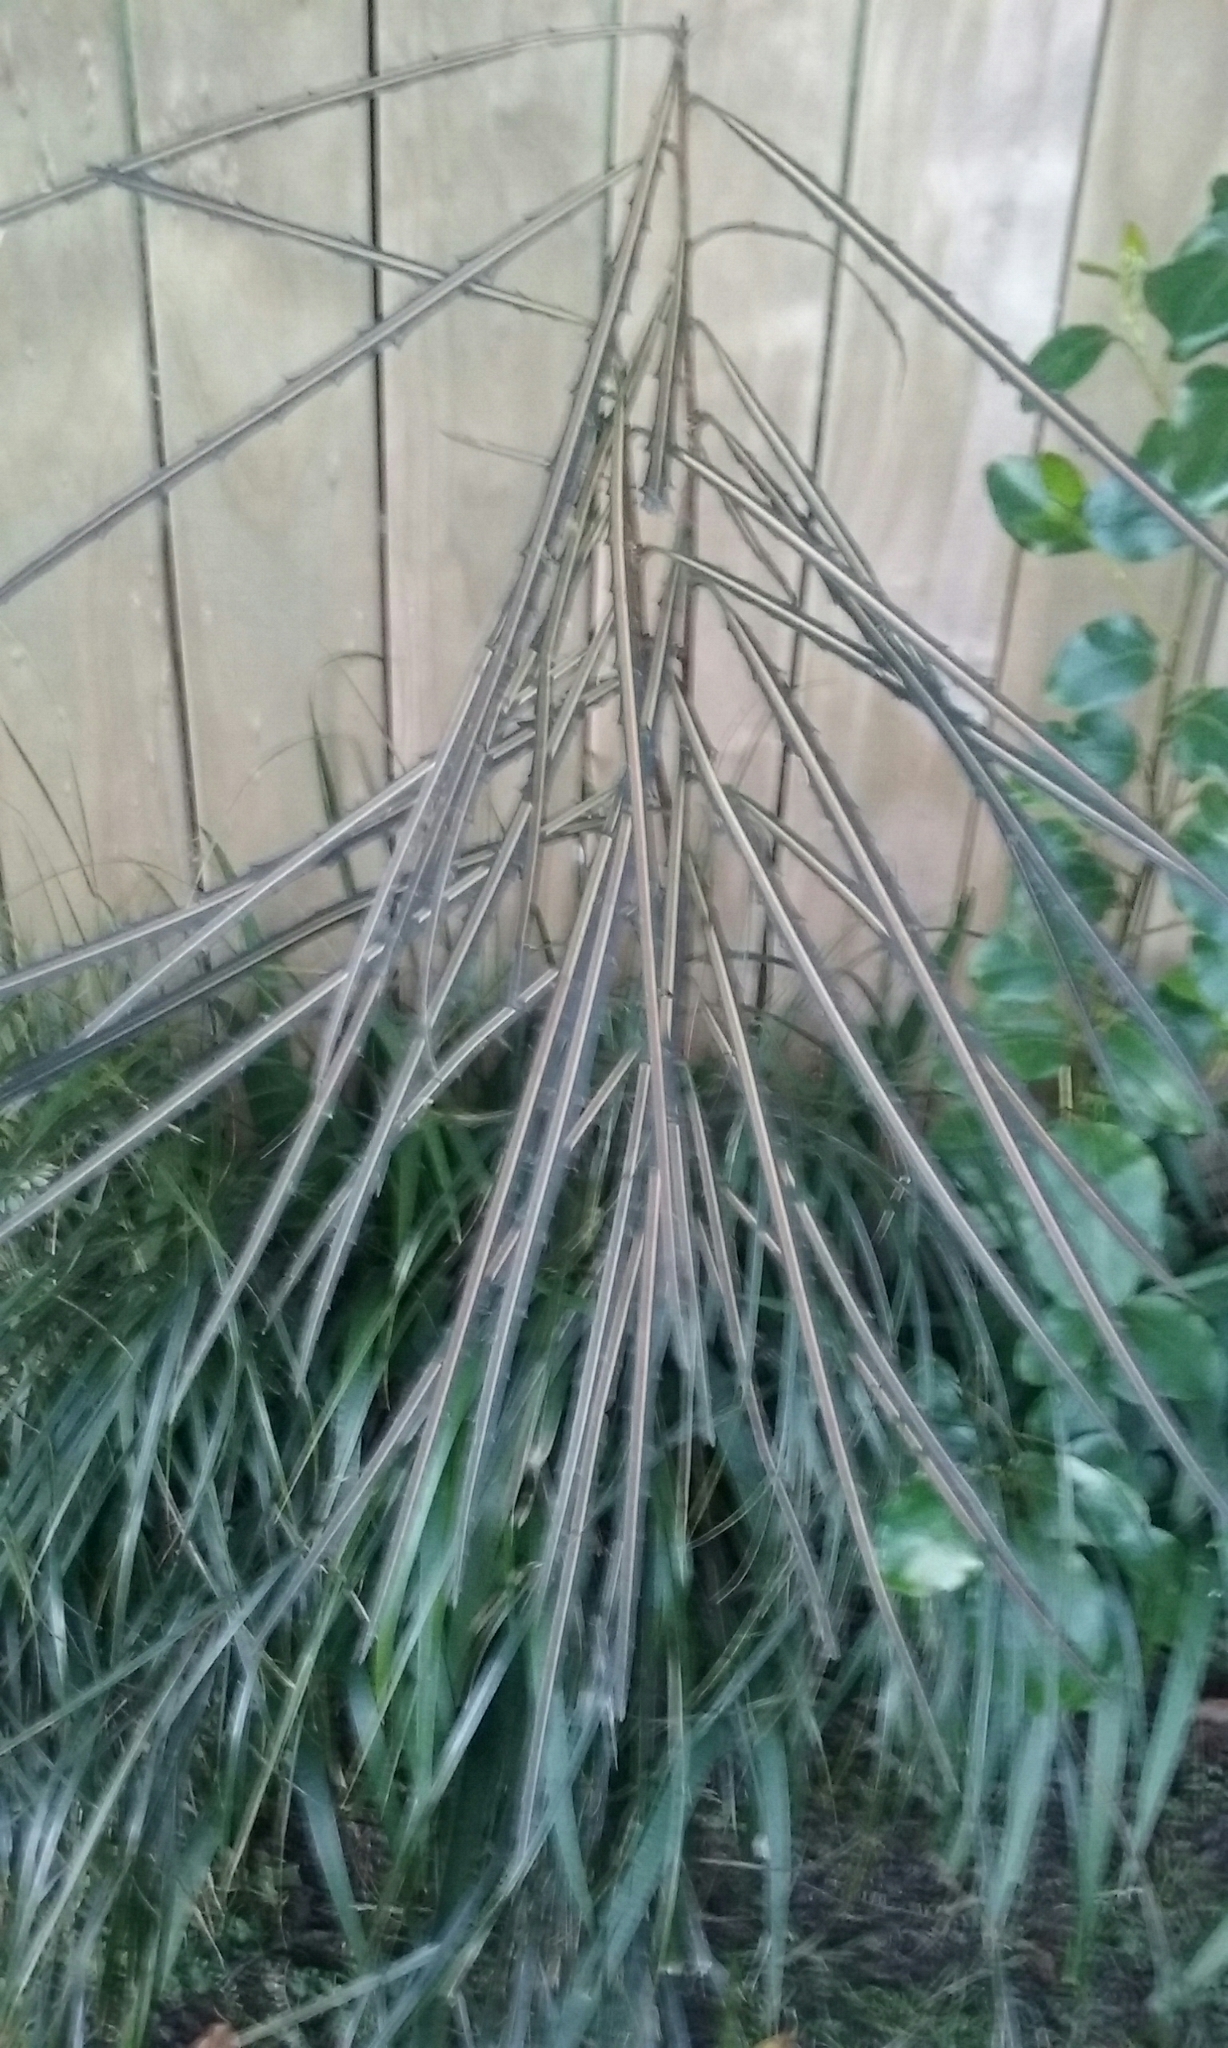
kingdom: Plantae
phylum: Tracheophyta
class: Magnoliopsida
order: Apiales
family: Araliaceae
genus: Pseudopanax
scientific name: Pseudopanax crassifolius
